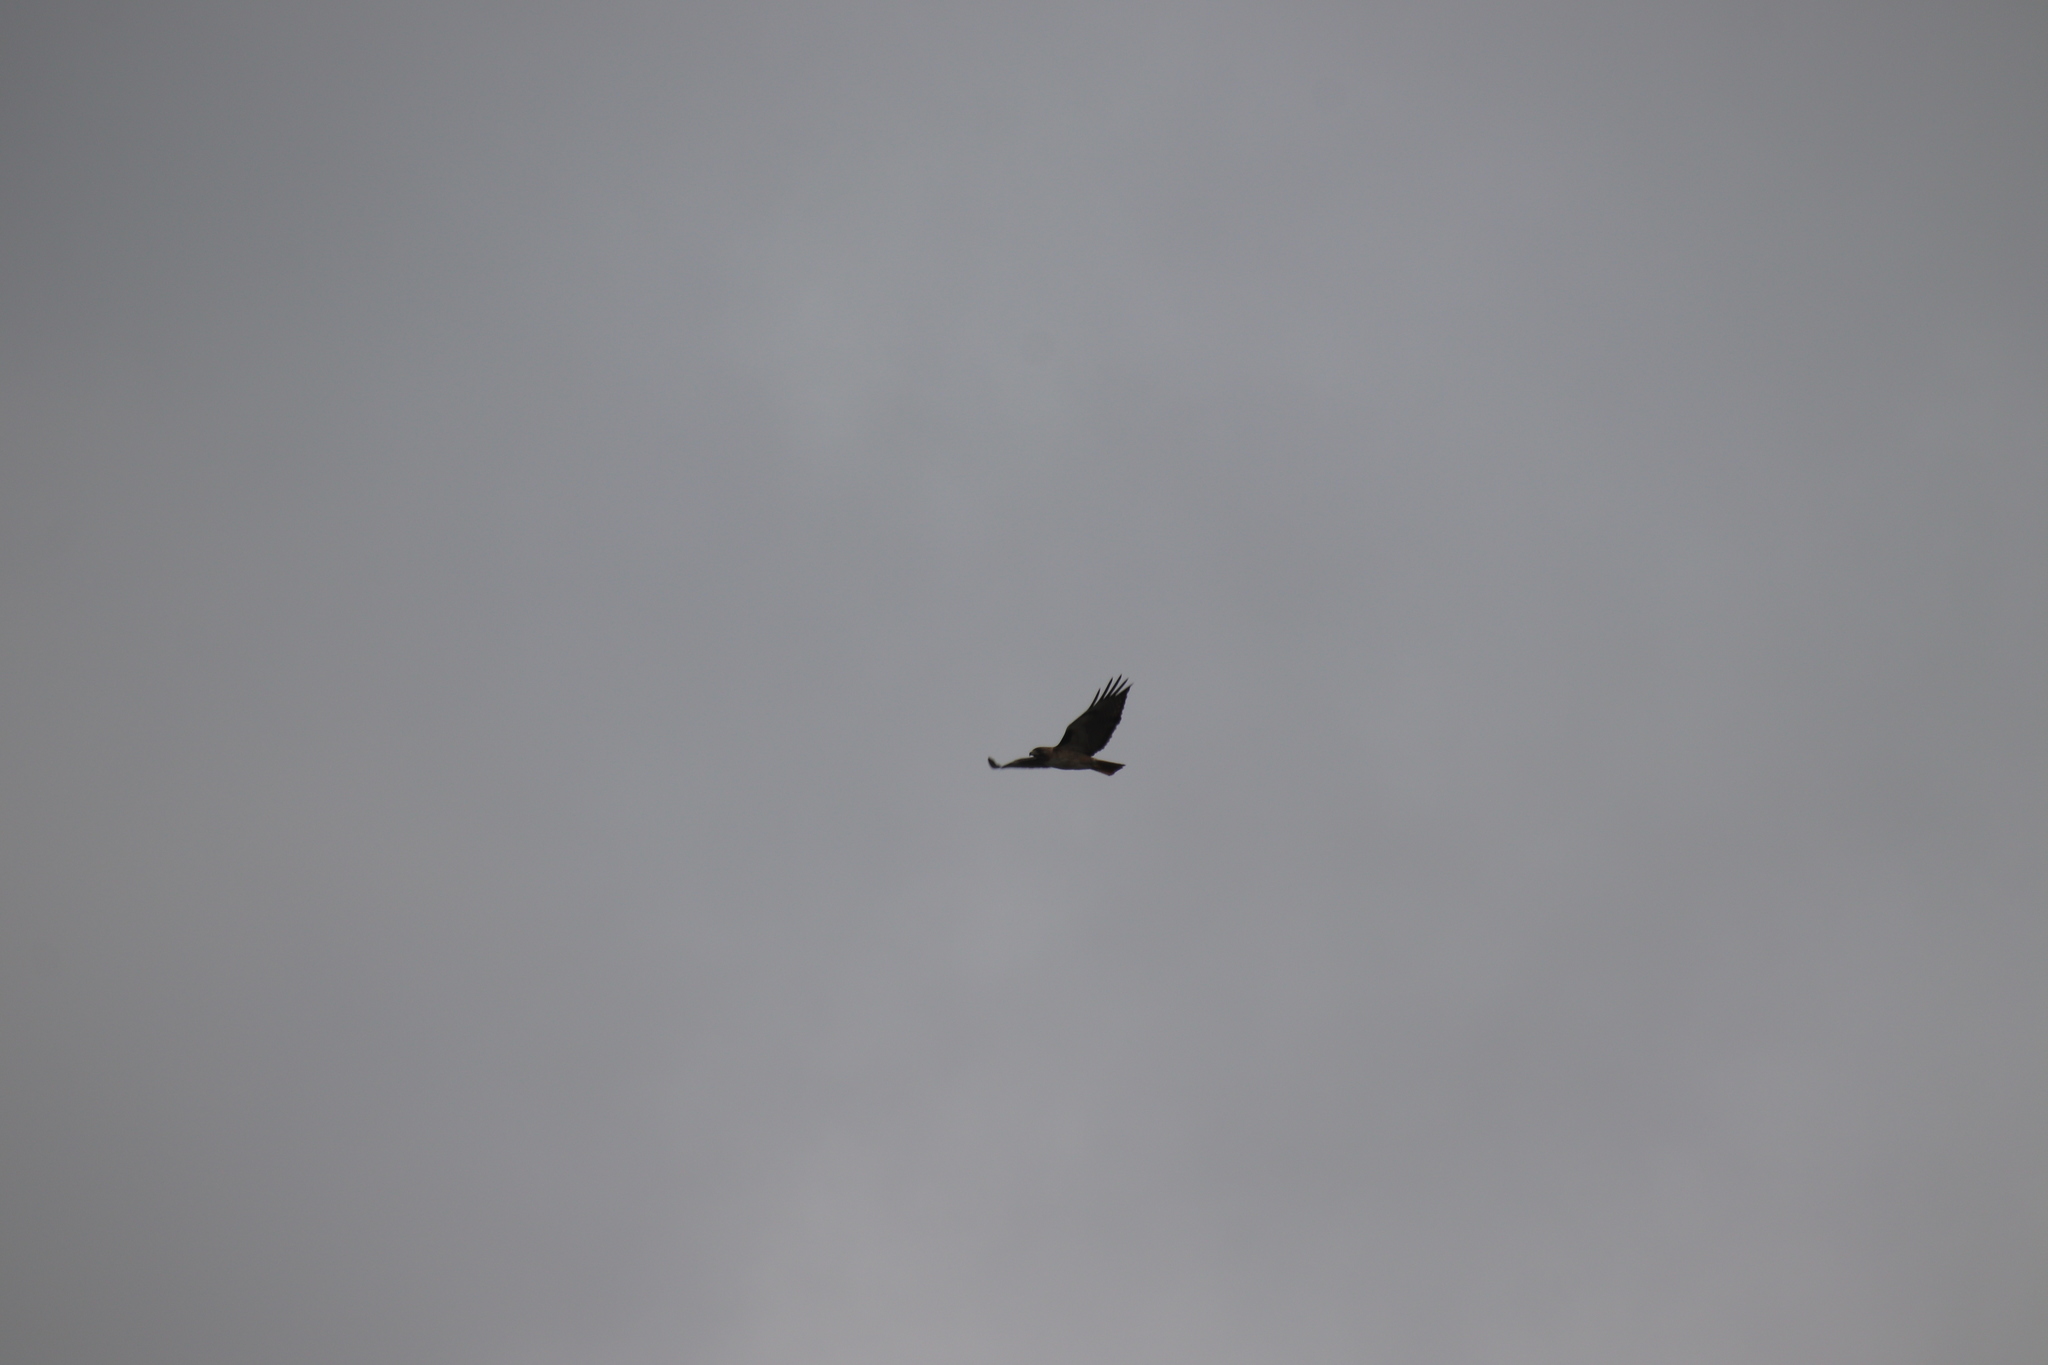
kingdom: Animalia
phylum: Chordata
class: Aves
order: Accipitriformes
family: Accipitridae
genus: Buteo
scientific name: Buteo jamaicensis
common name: Red-tailed hawk
